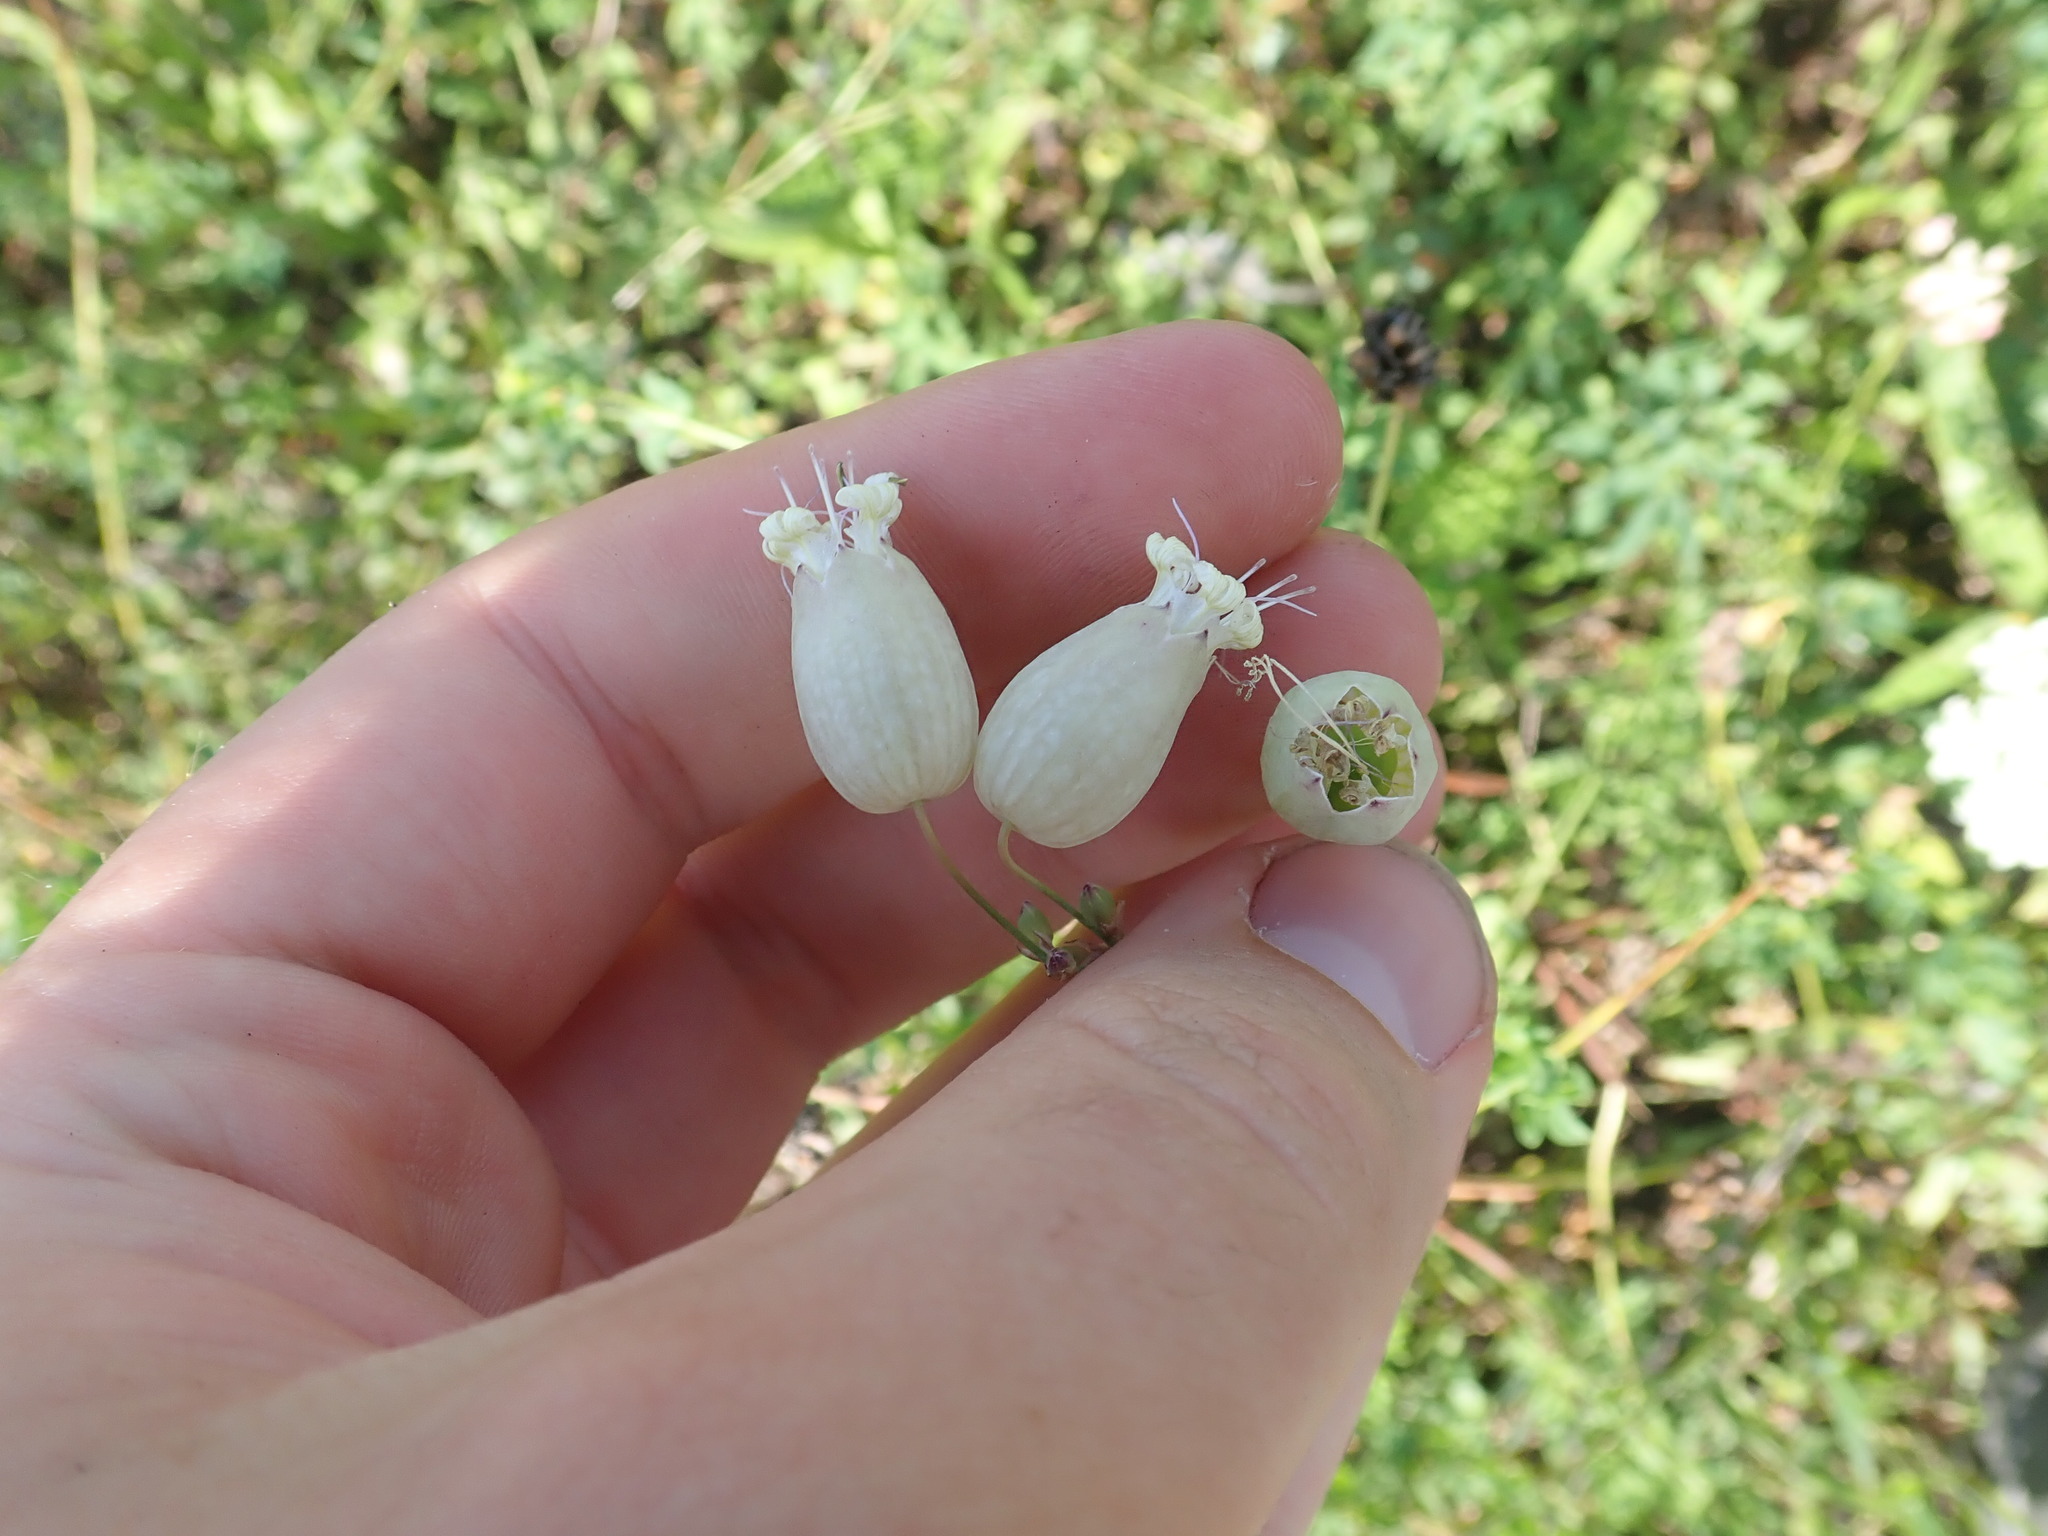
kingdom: Plantae
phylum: Tracheophyta
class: Magnoliopsida
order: Caryophyllales
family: Caryophyllaceae
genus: Silene
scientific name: Silene vulgaris
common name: Bladder campion
